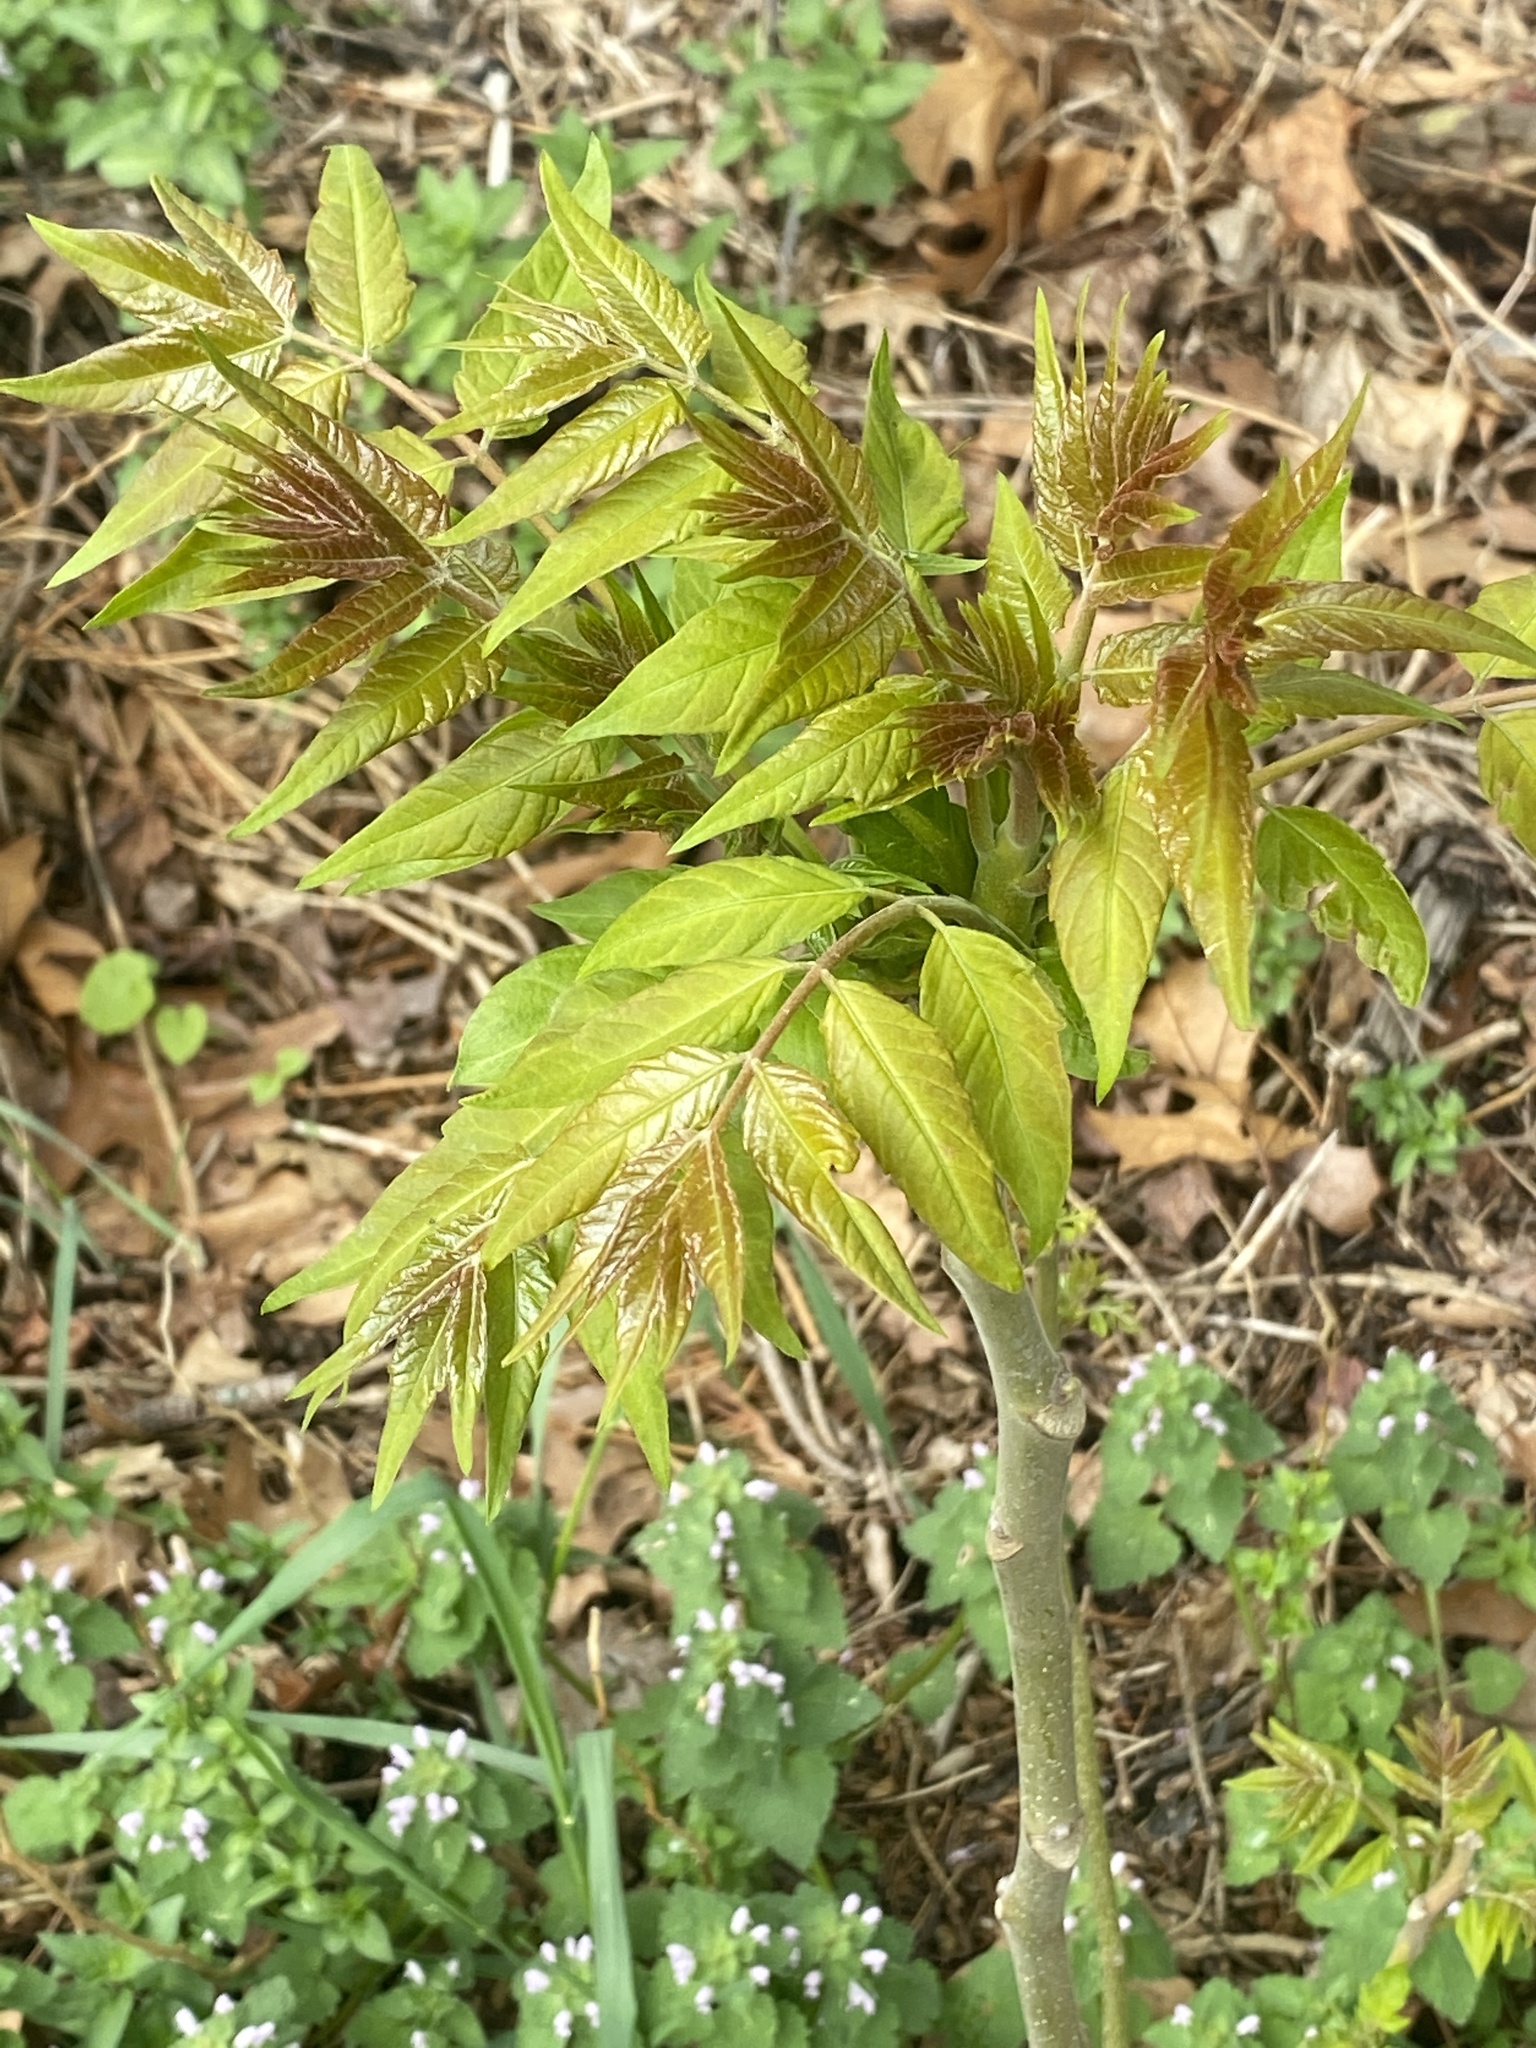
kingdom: Plantae
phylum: Tracheophyta
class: Magnoliopsida
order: Sapindales
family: Simaroubaceae
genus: Ailanthus
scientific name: Ailanthus altissima
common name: Tree-of-heaven
